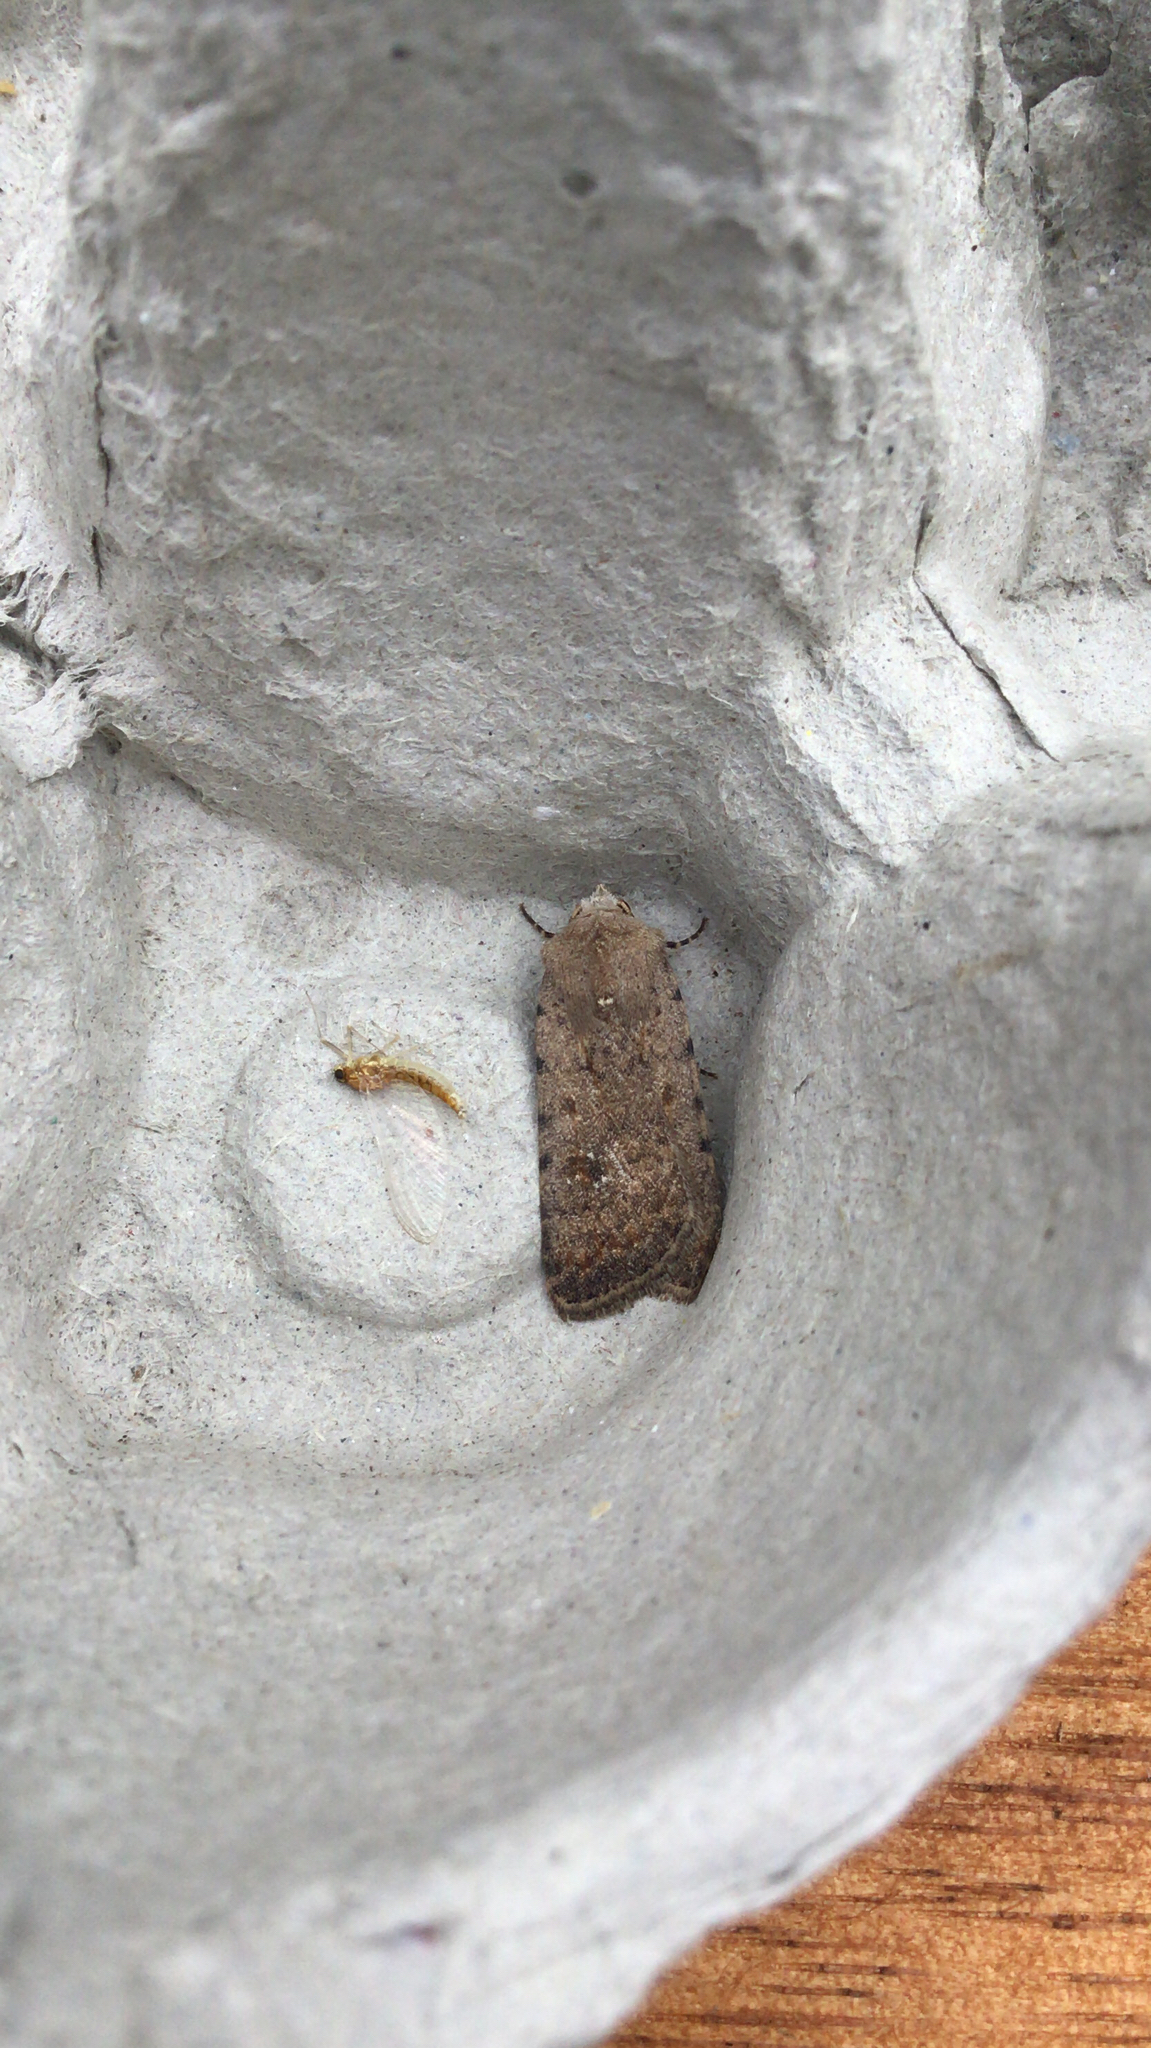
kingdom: Animalia
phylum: Arthropoda
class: Insecta
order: Lepidoptera
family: Noctuidae
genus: Caradrina
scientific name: Caradrina clavipalpis
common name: Pale mottled willow
